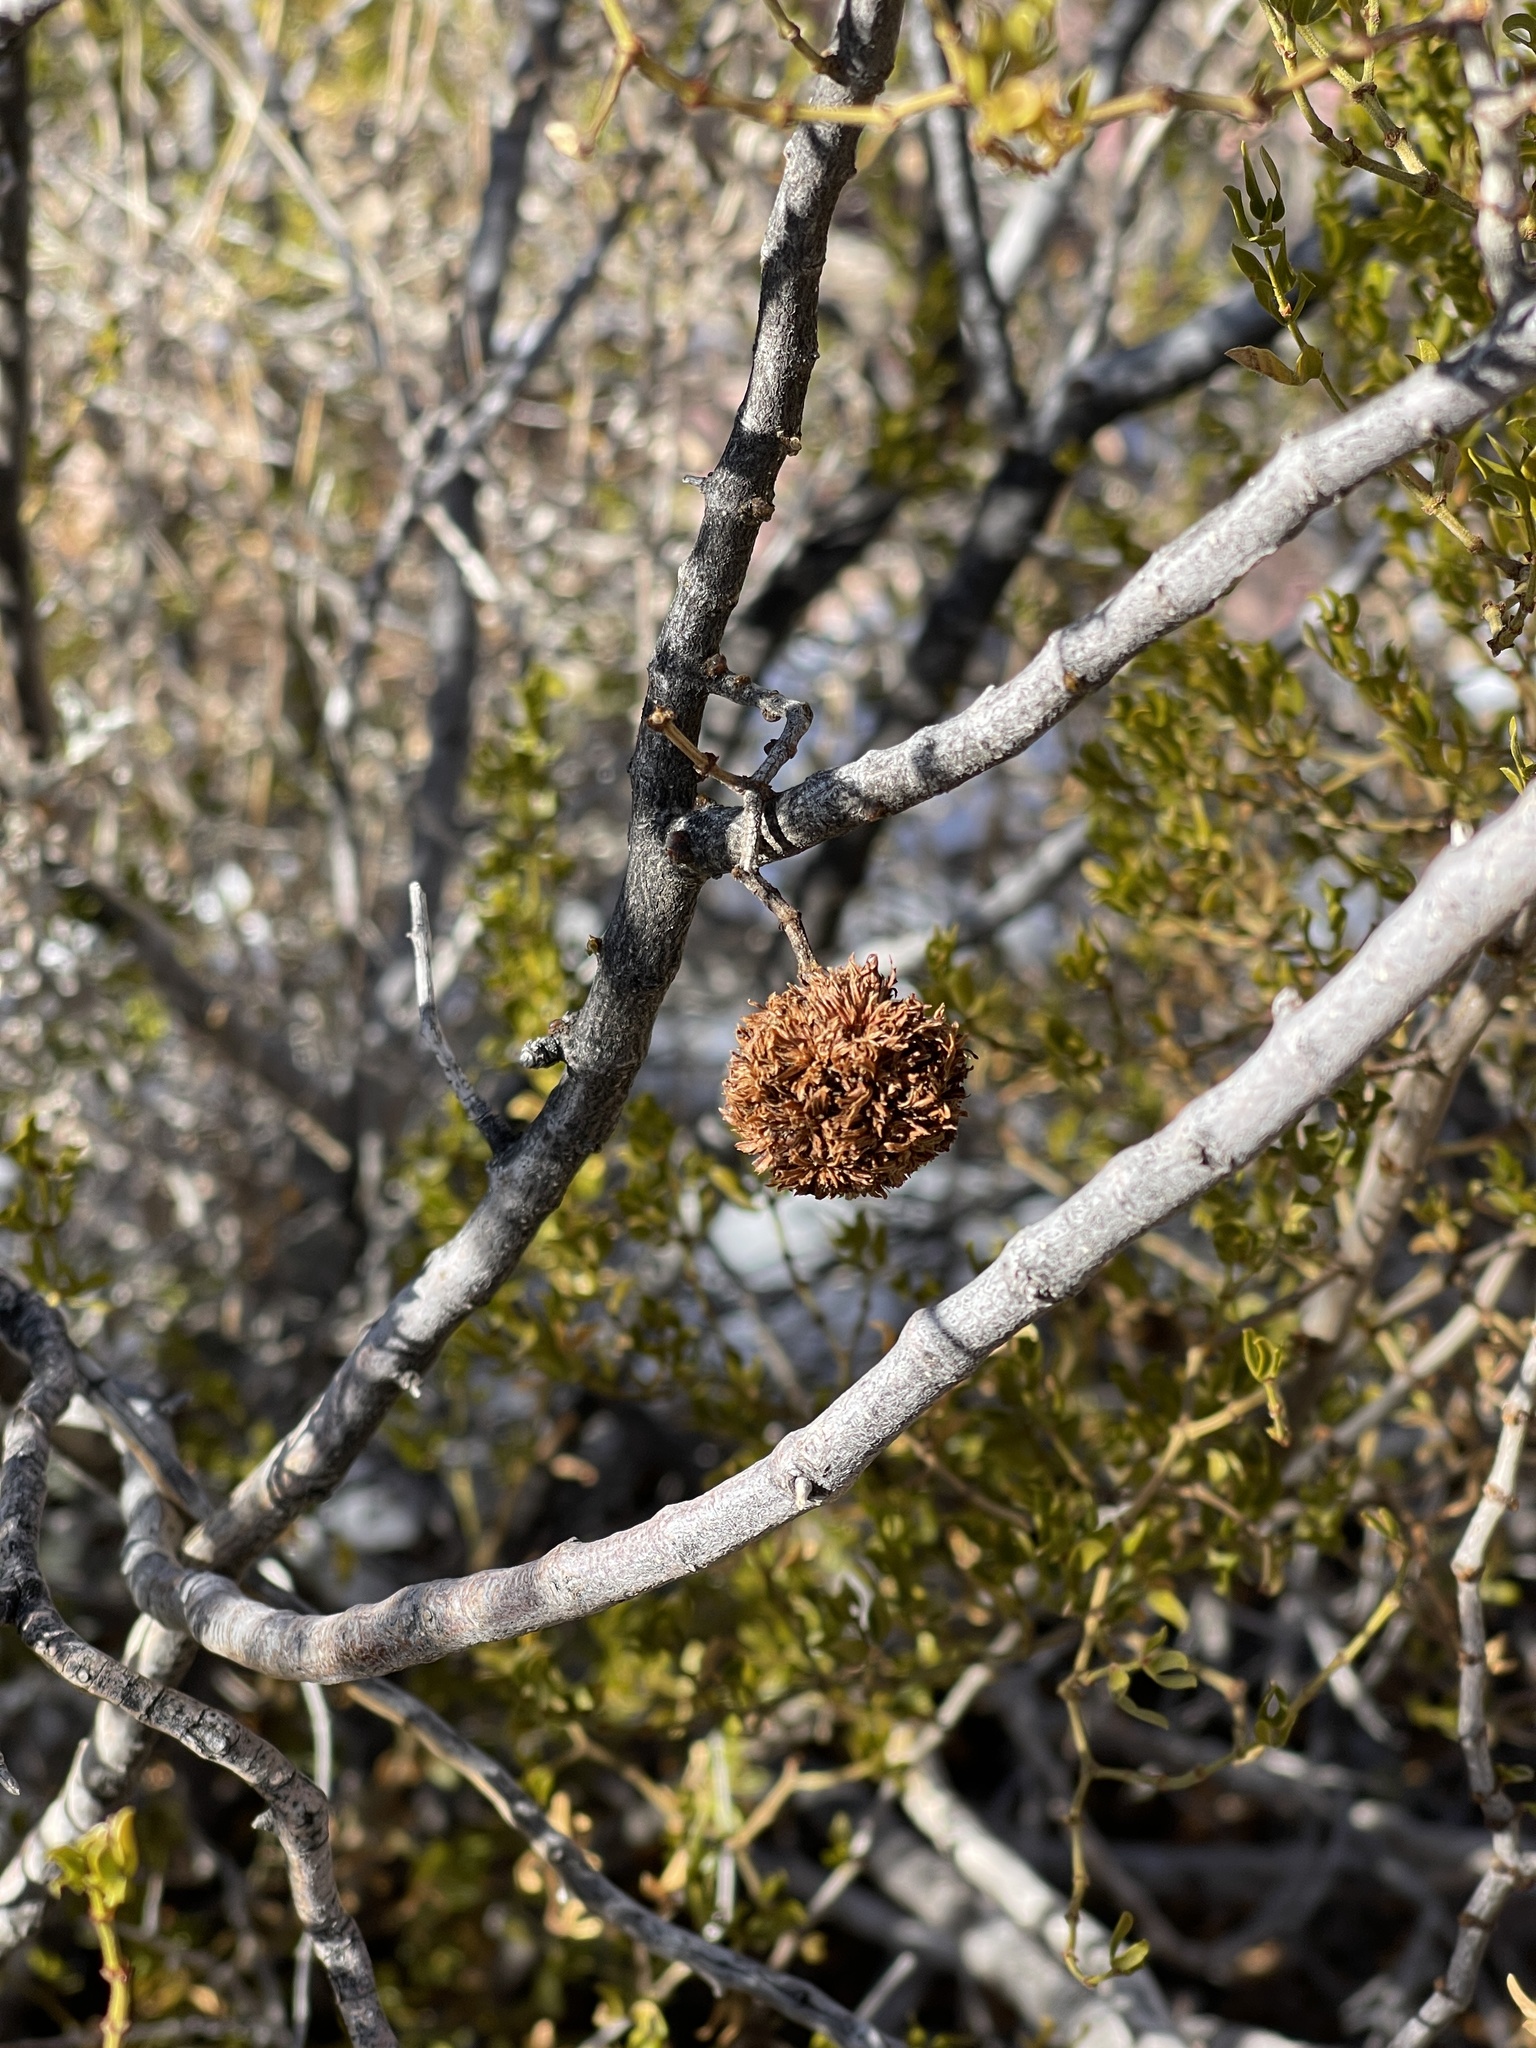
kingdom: Animalia
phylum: Arthropoda
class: Insecta
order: Diptera
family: Cecidomyiidae
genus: Asphondylia
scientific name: Asphondylia auripila
